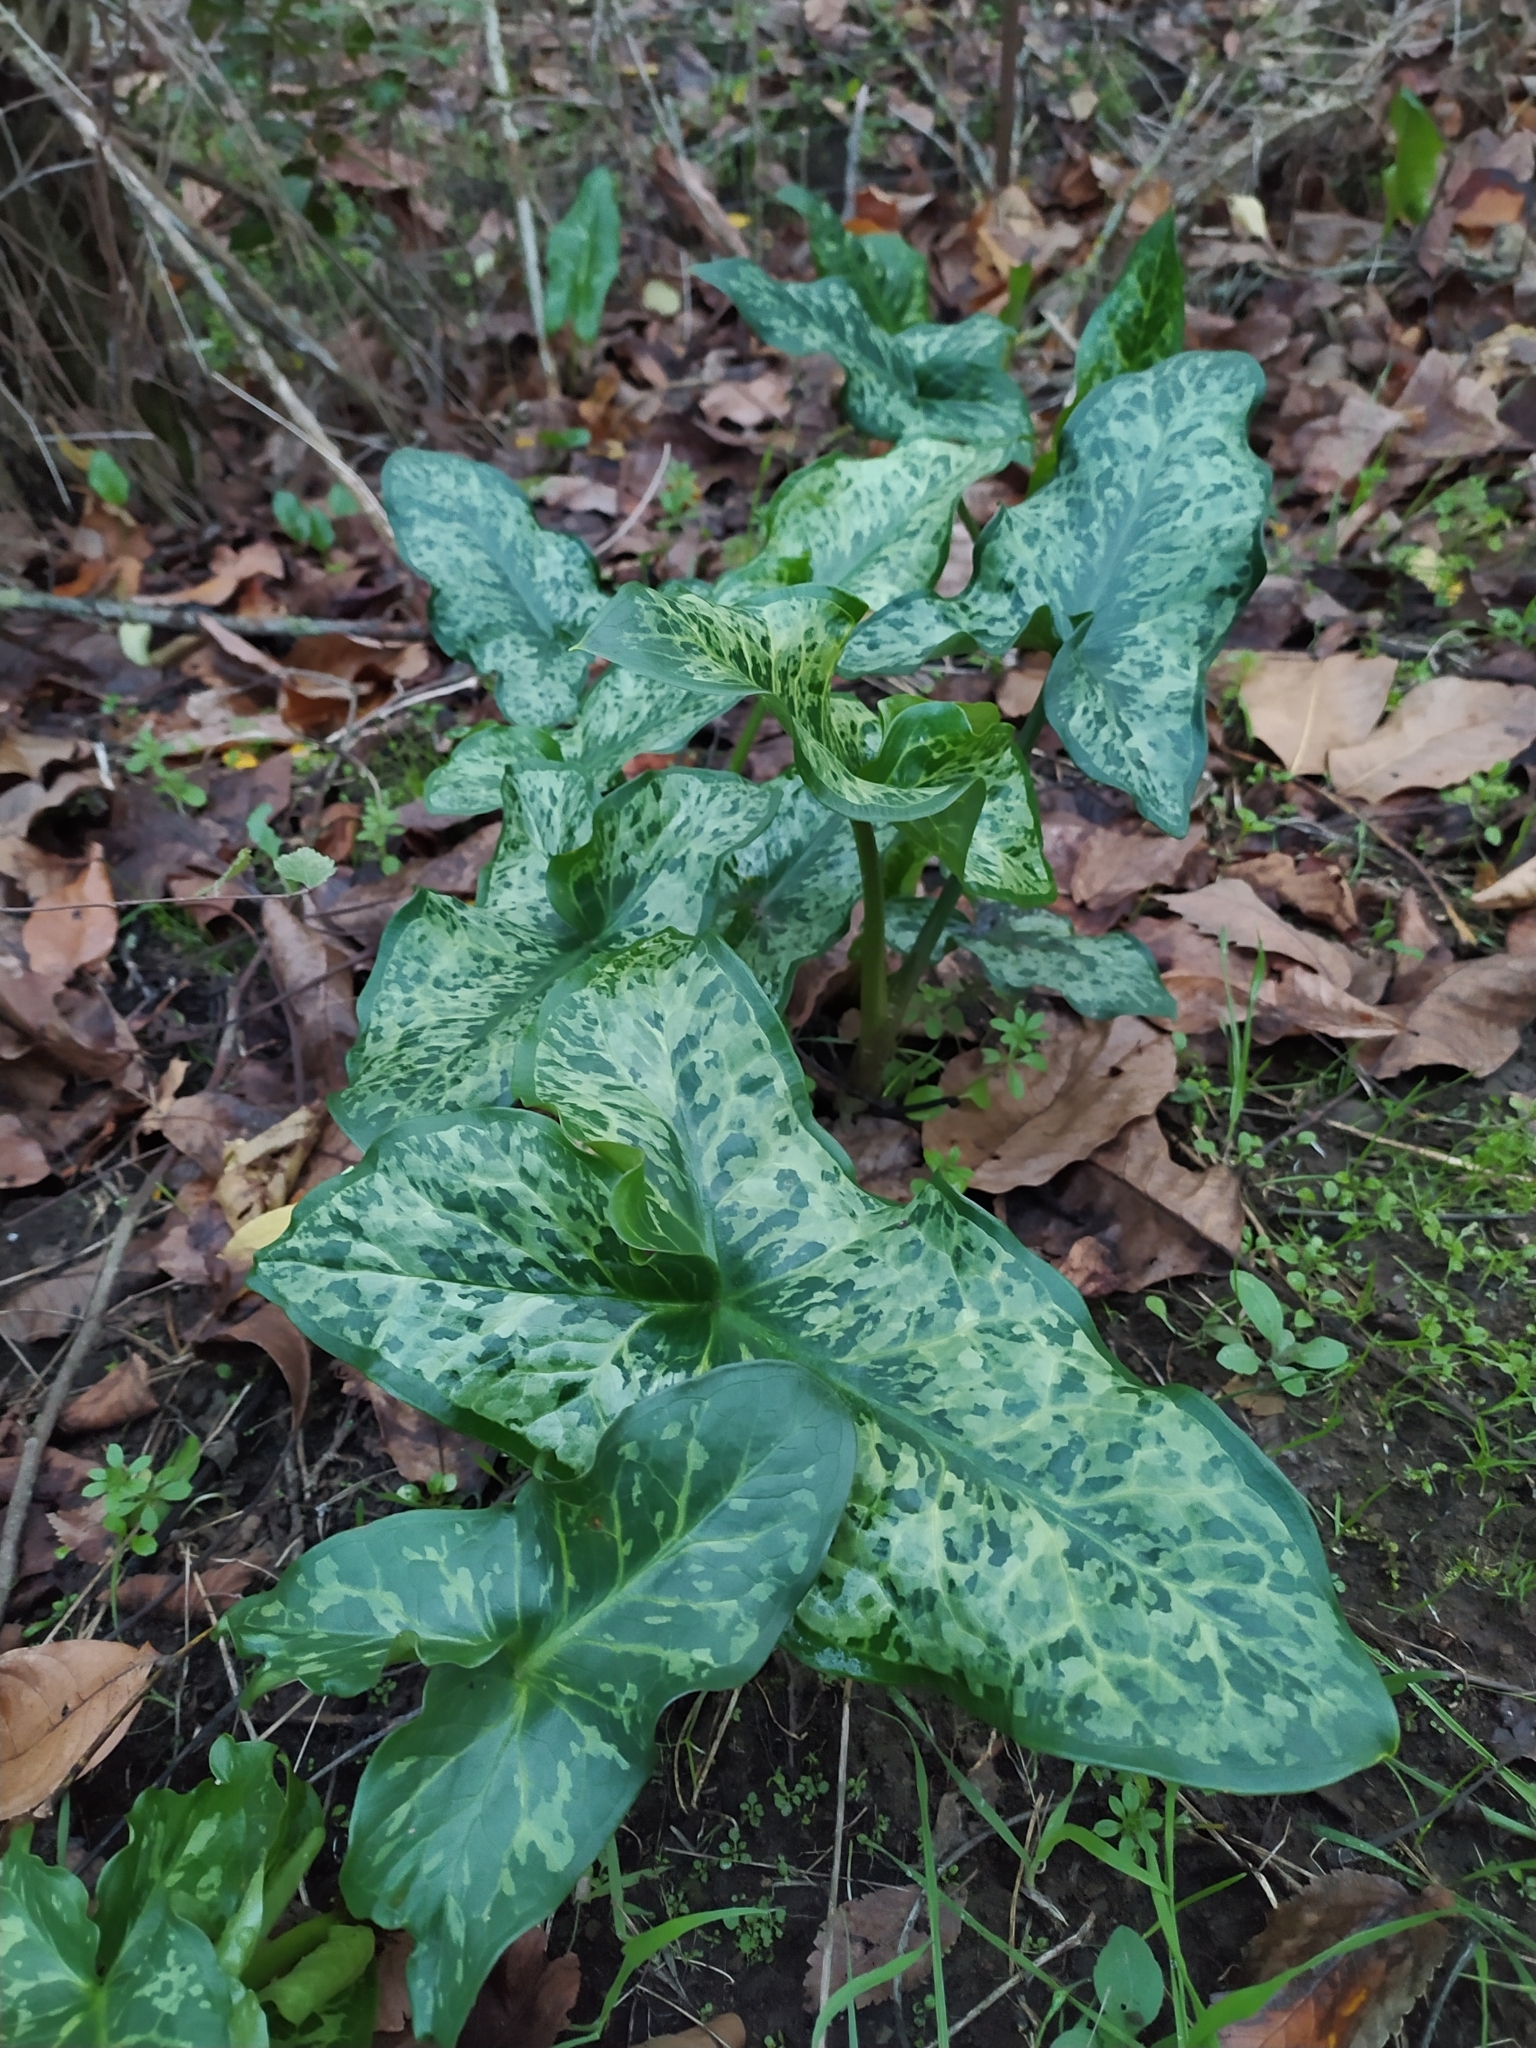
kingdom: Plantae
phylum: Tracheophyta
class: Liliopsida
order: Alismatales
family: Araceae
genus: Arum
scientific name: Arum italicum
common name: Italian lords-and-ladies
